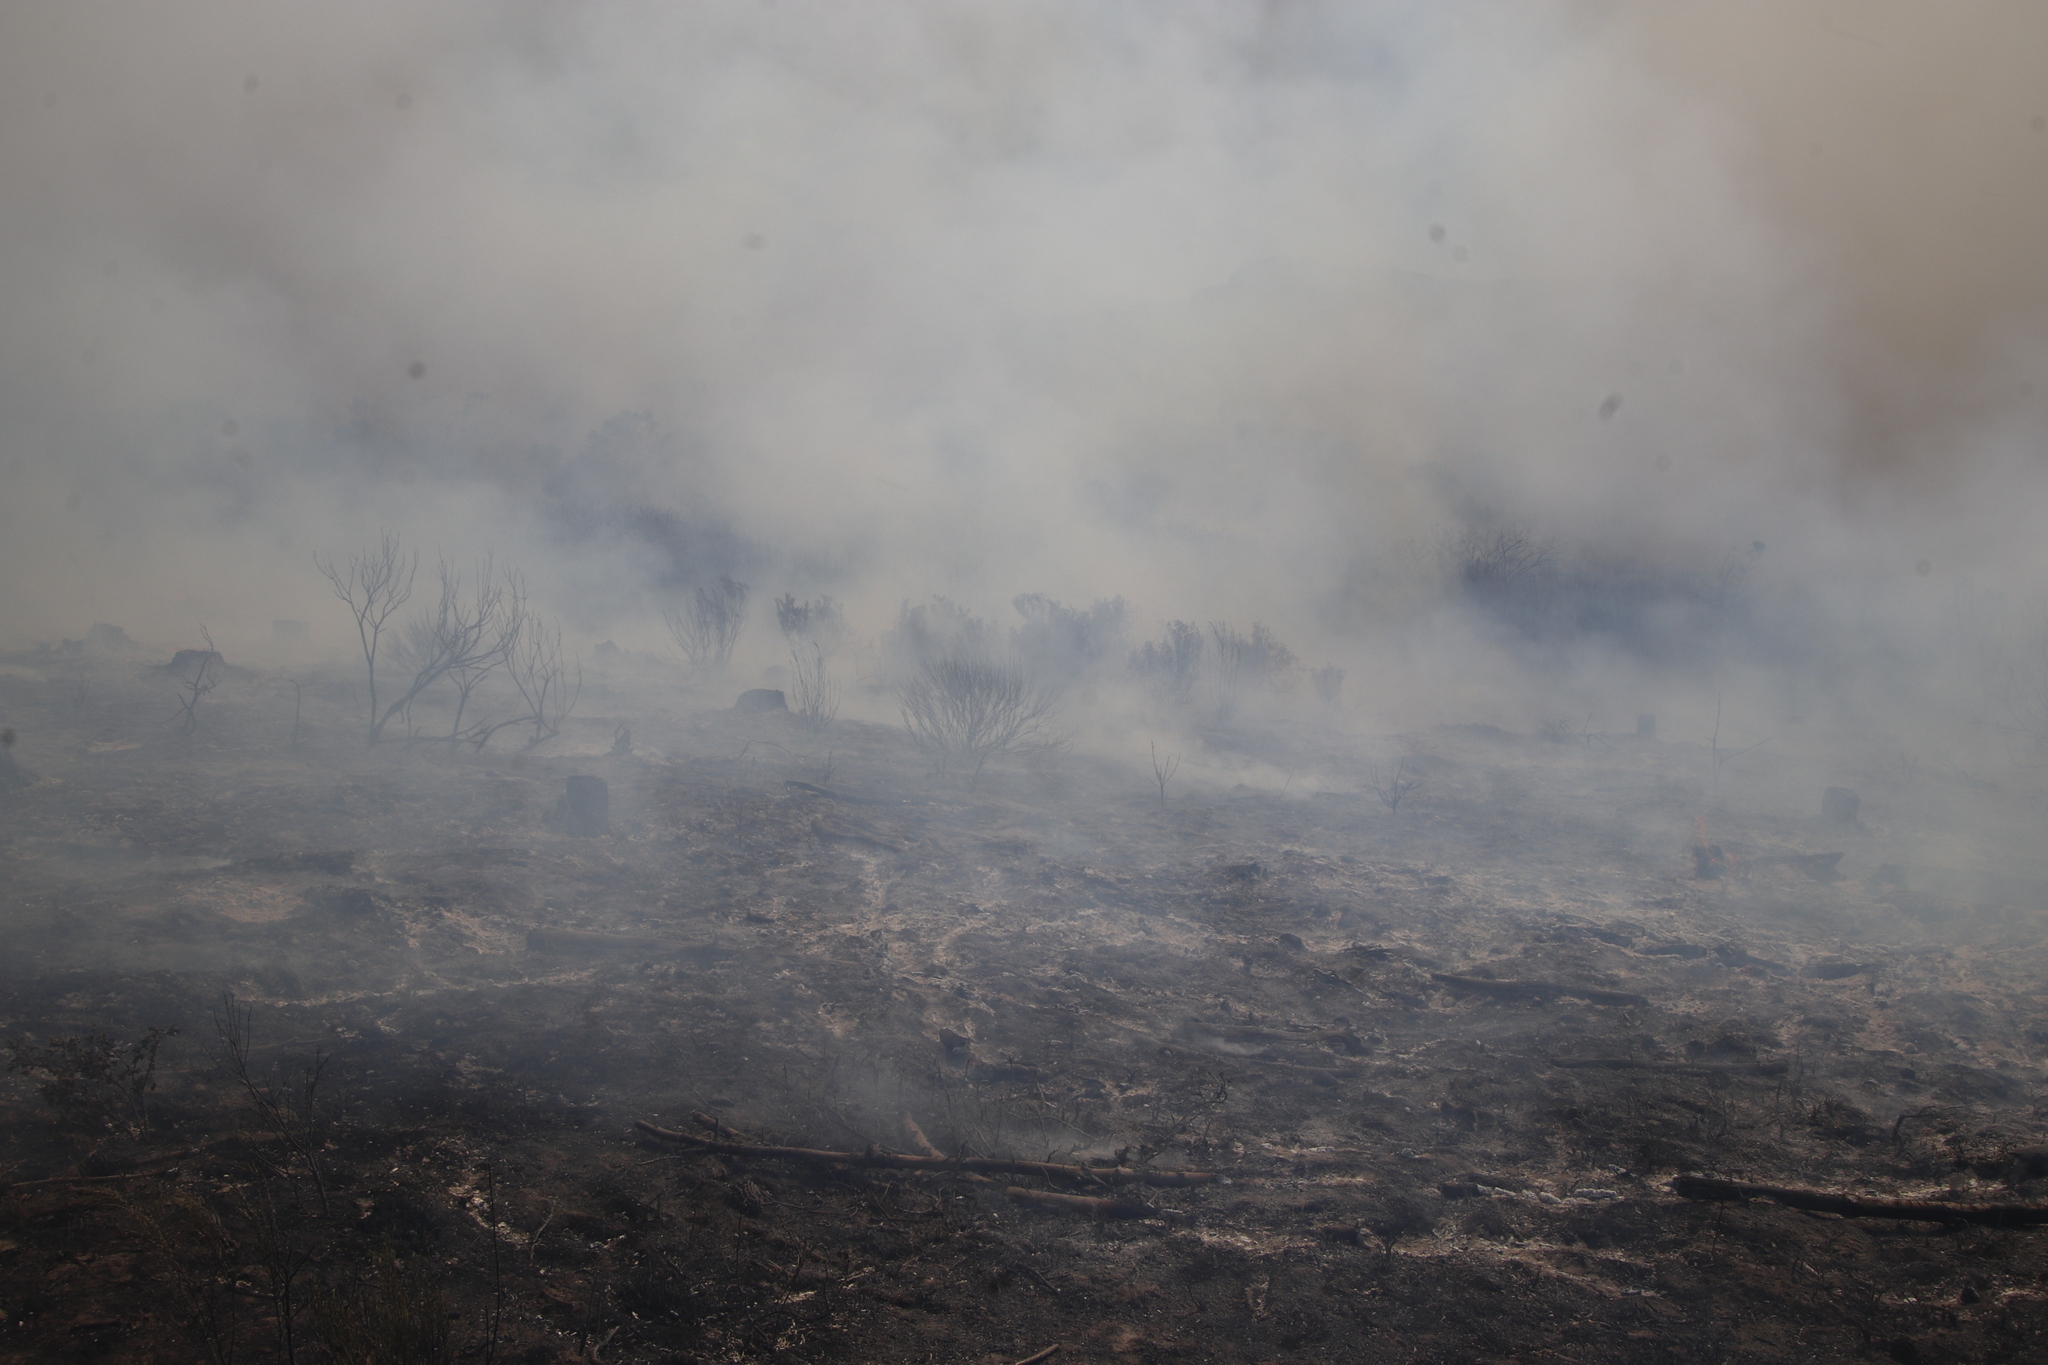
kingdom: Plantae
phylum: Tracheophyta
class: Pinopsida
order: Pinales
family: Pinaceae
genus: Pinus
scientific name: Pinus radiata
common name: Monterey pine
